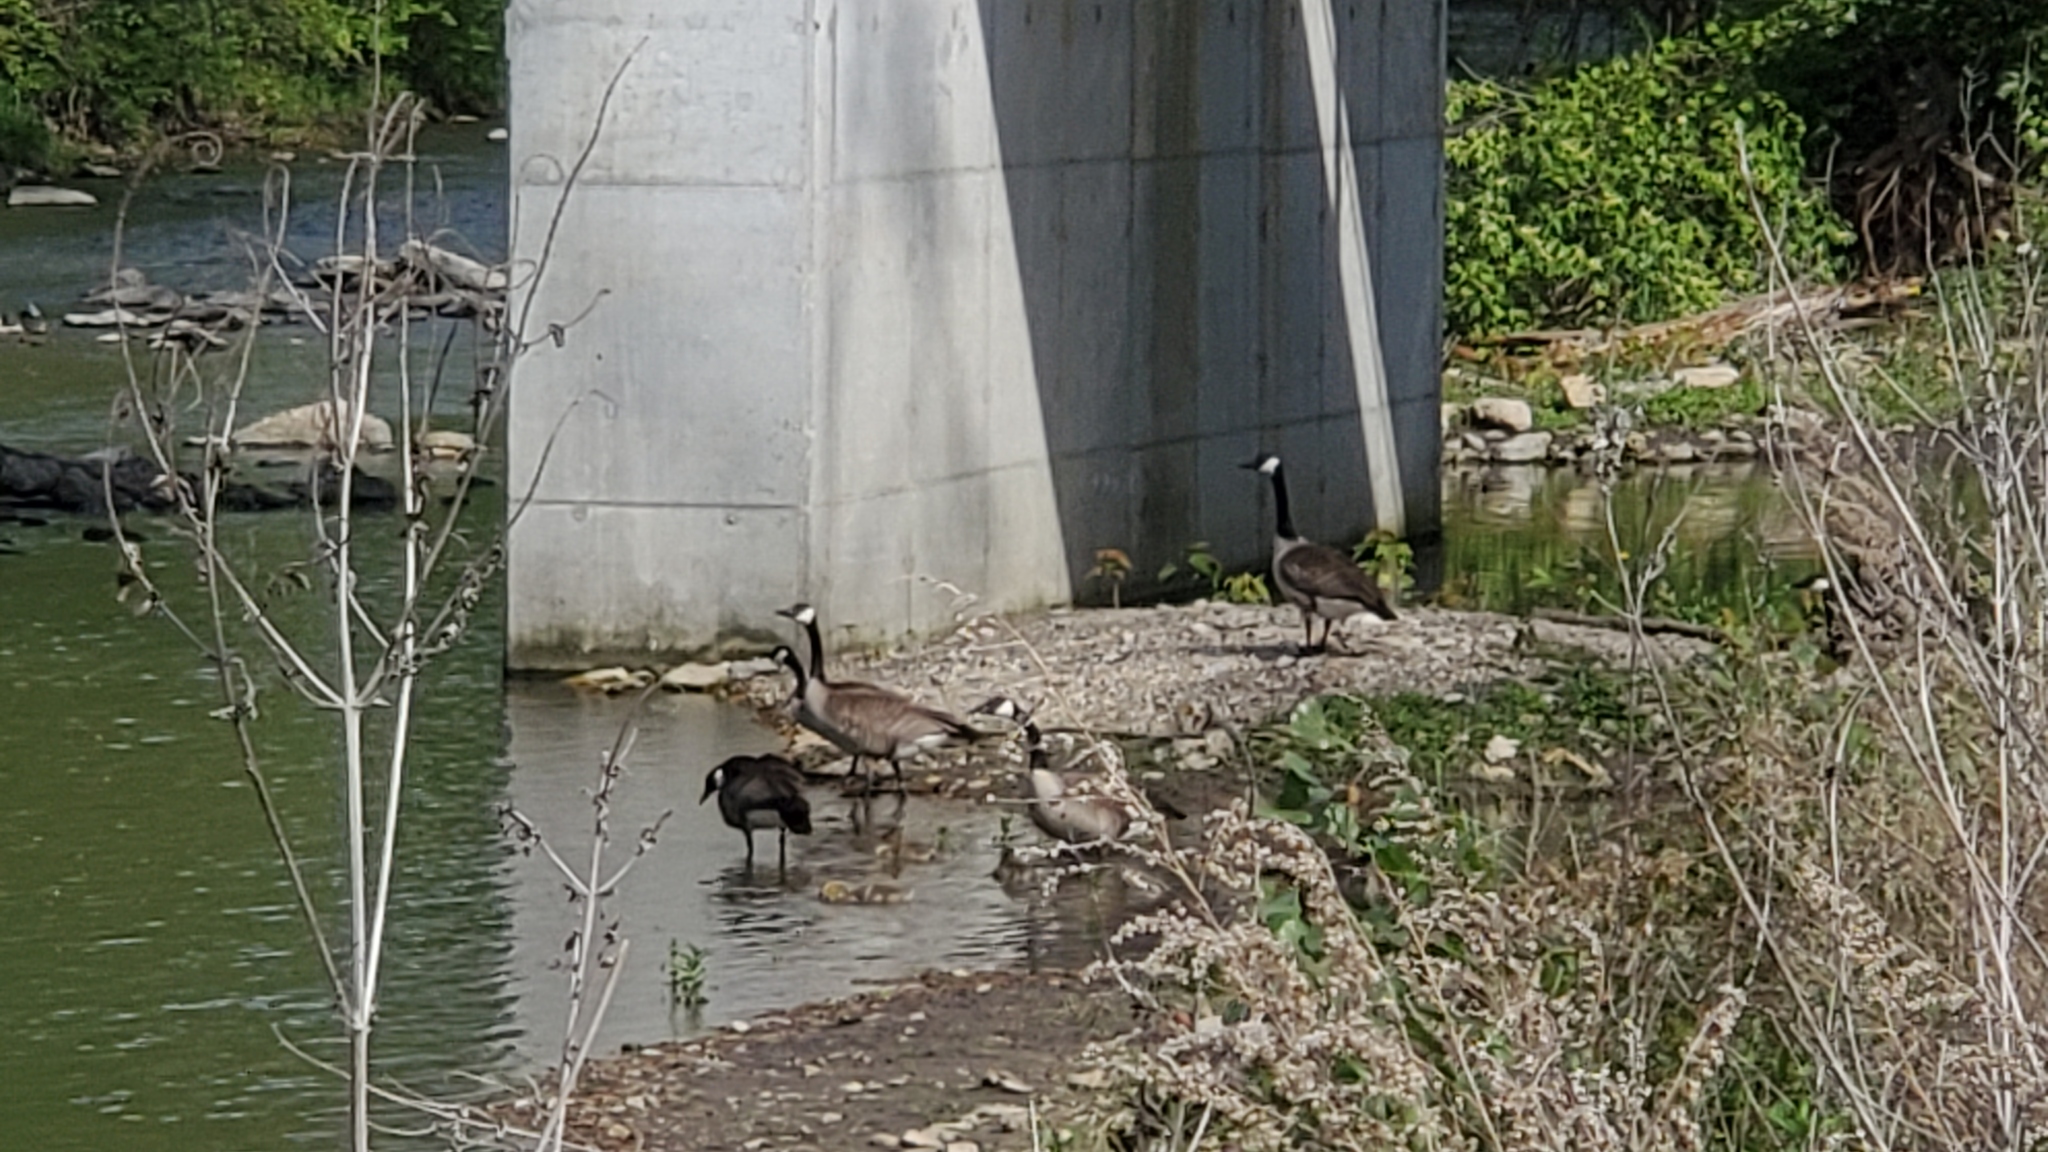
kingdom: Animalia
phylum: Chordata
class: Aves
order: Anseriformes
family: Anatidae
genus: Branta
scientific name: Branta canadensis
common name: Canada goose
